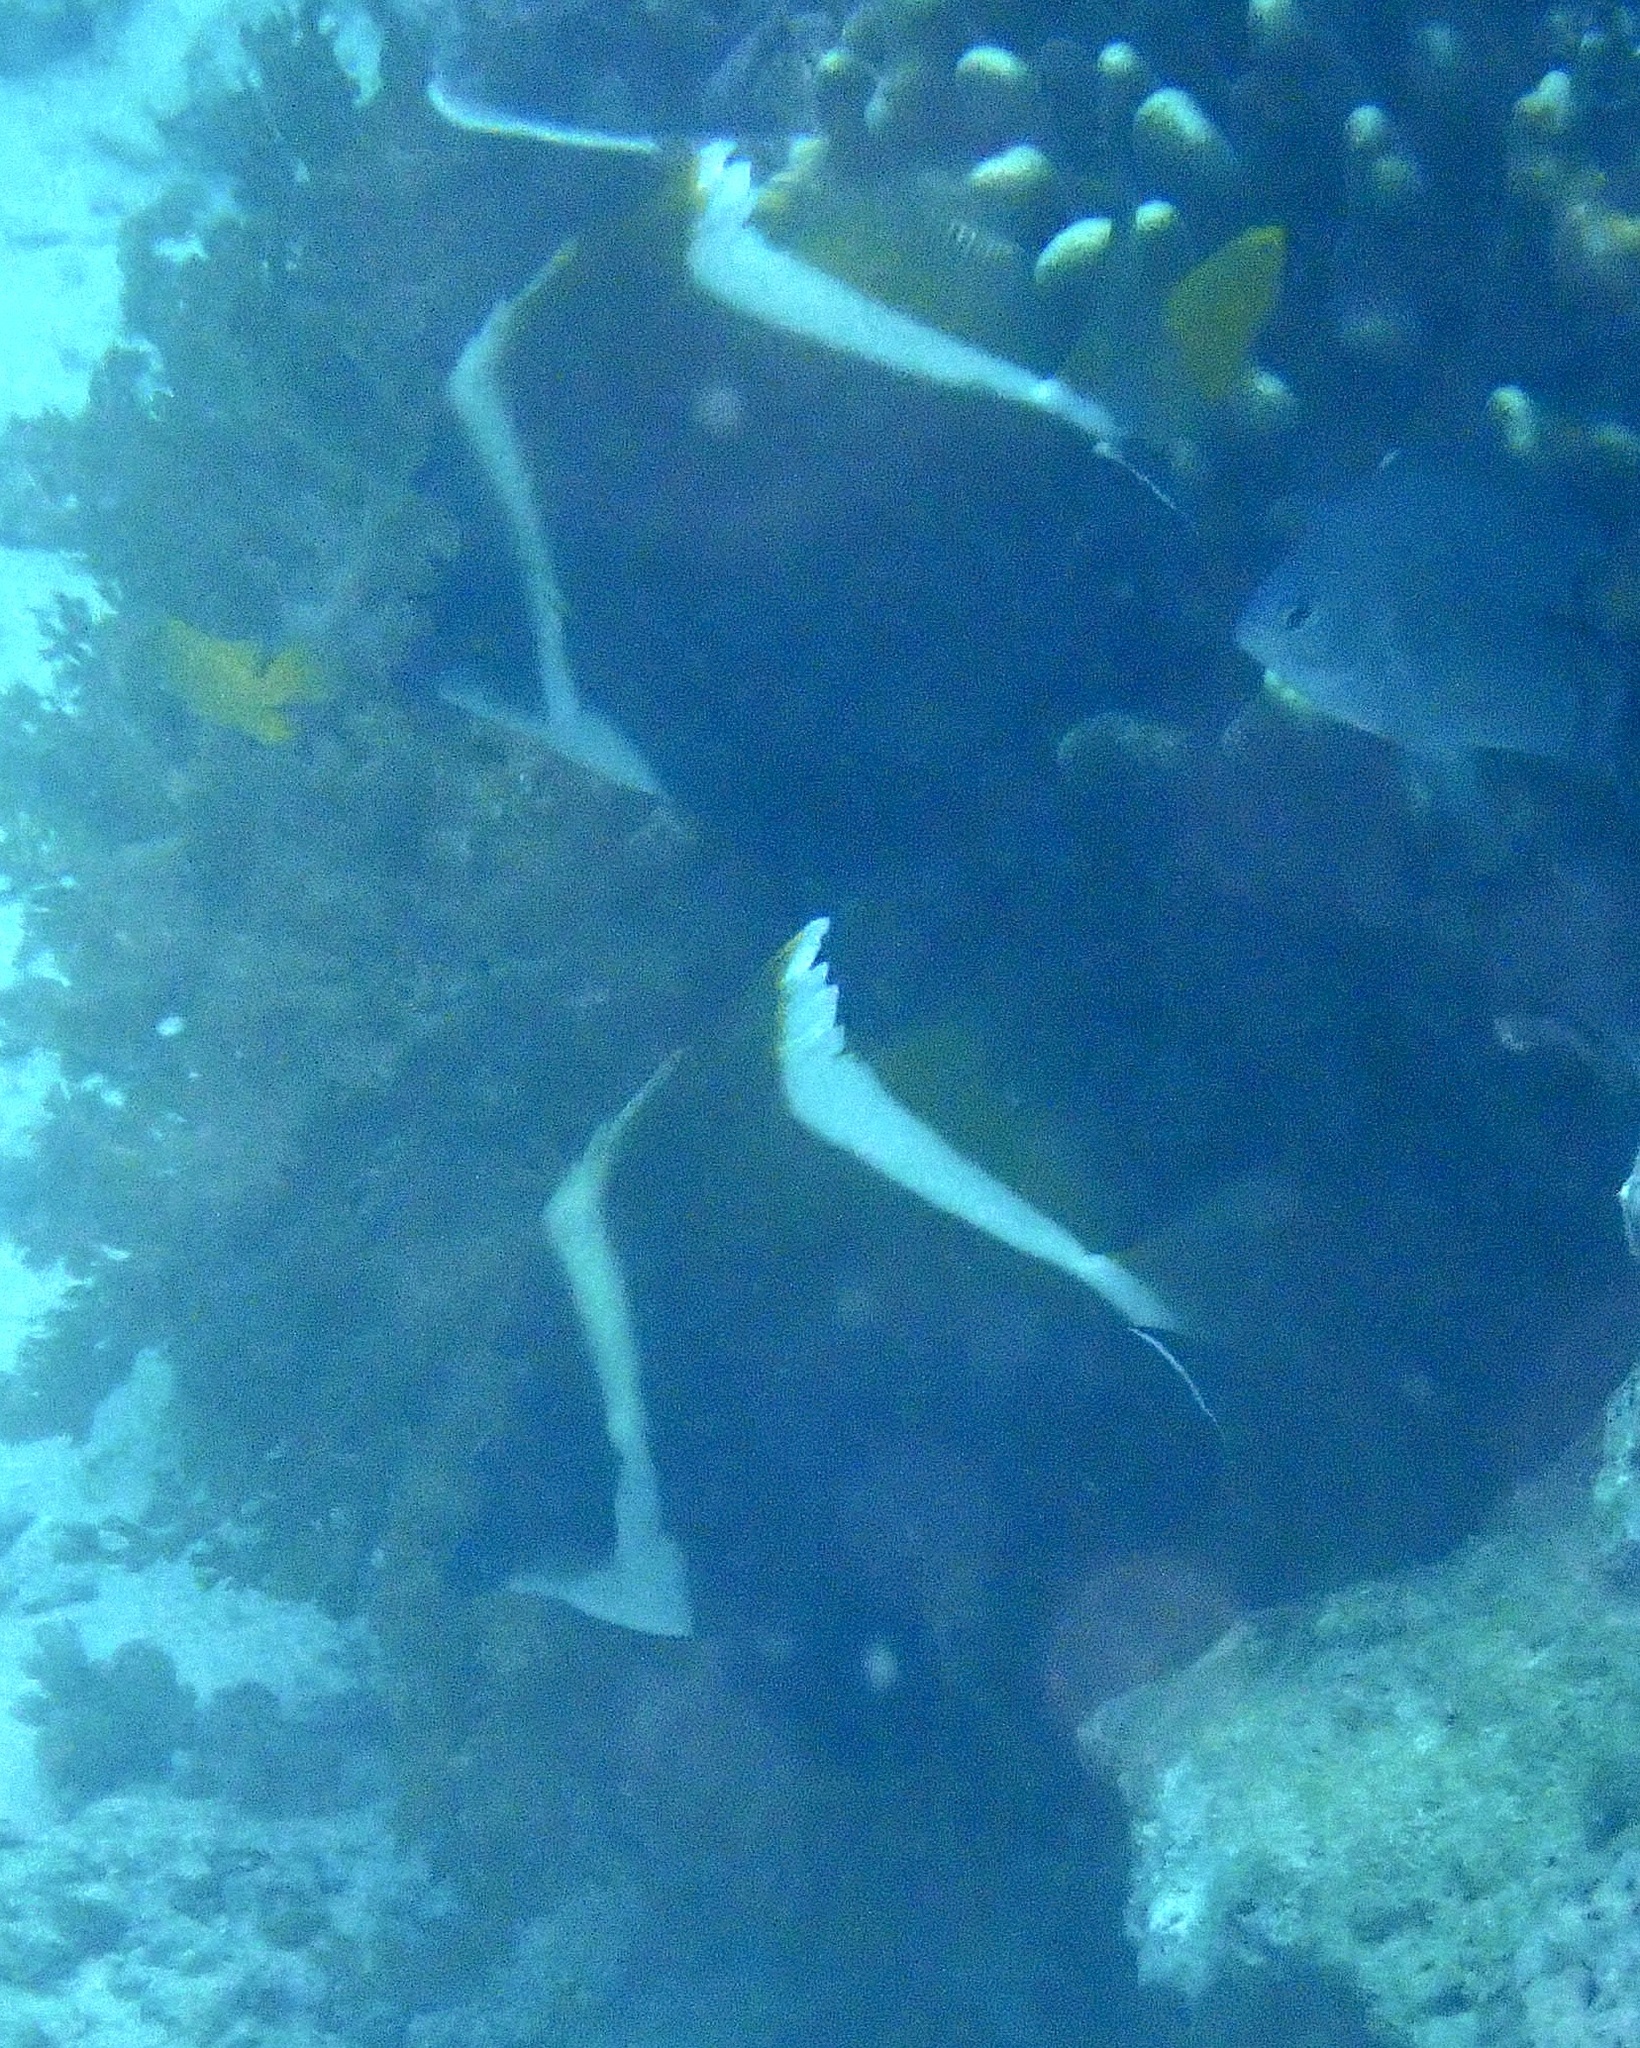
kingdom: Animalia
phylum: Chordata
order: Perciformes
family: Chaetodontidae
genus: Heniochus
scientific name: Heniochus varius
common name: Horned bannerfish
